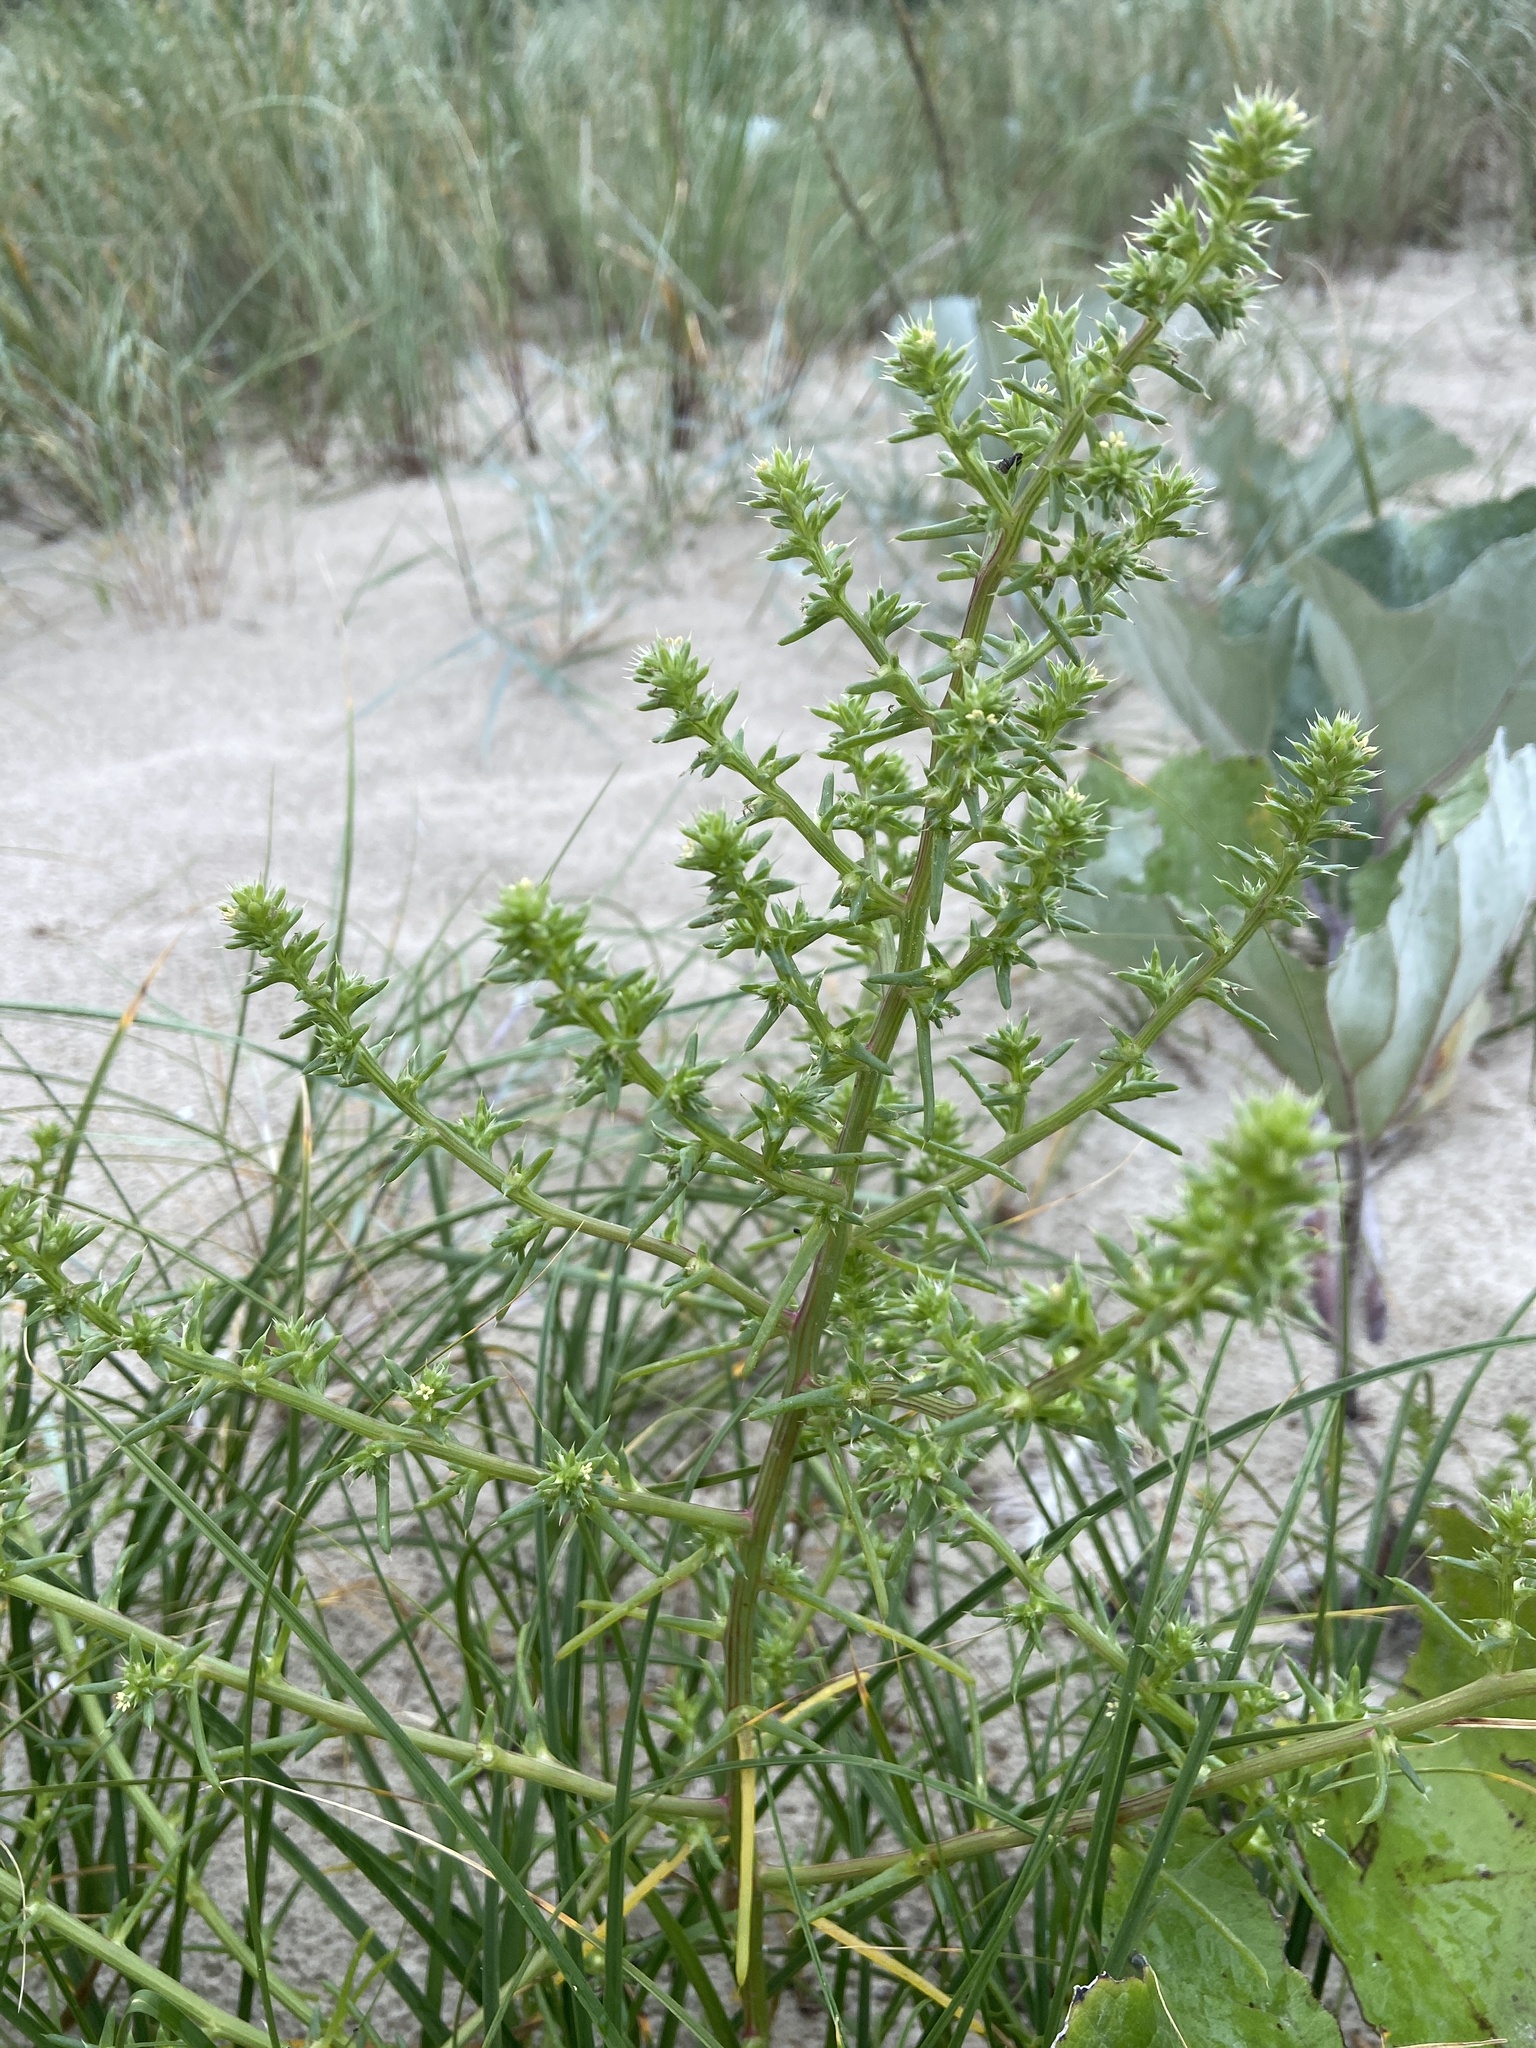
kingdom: Plantae
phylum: Tracheophyta
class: Magnoliopsida
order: Caryophyllales
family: Amaranthaceae
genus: Salsola
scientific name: Salsola kali
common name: Saltwort
